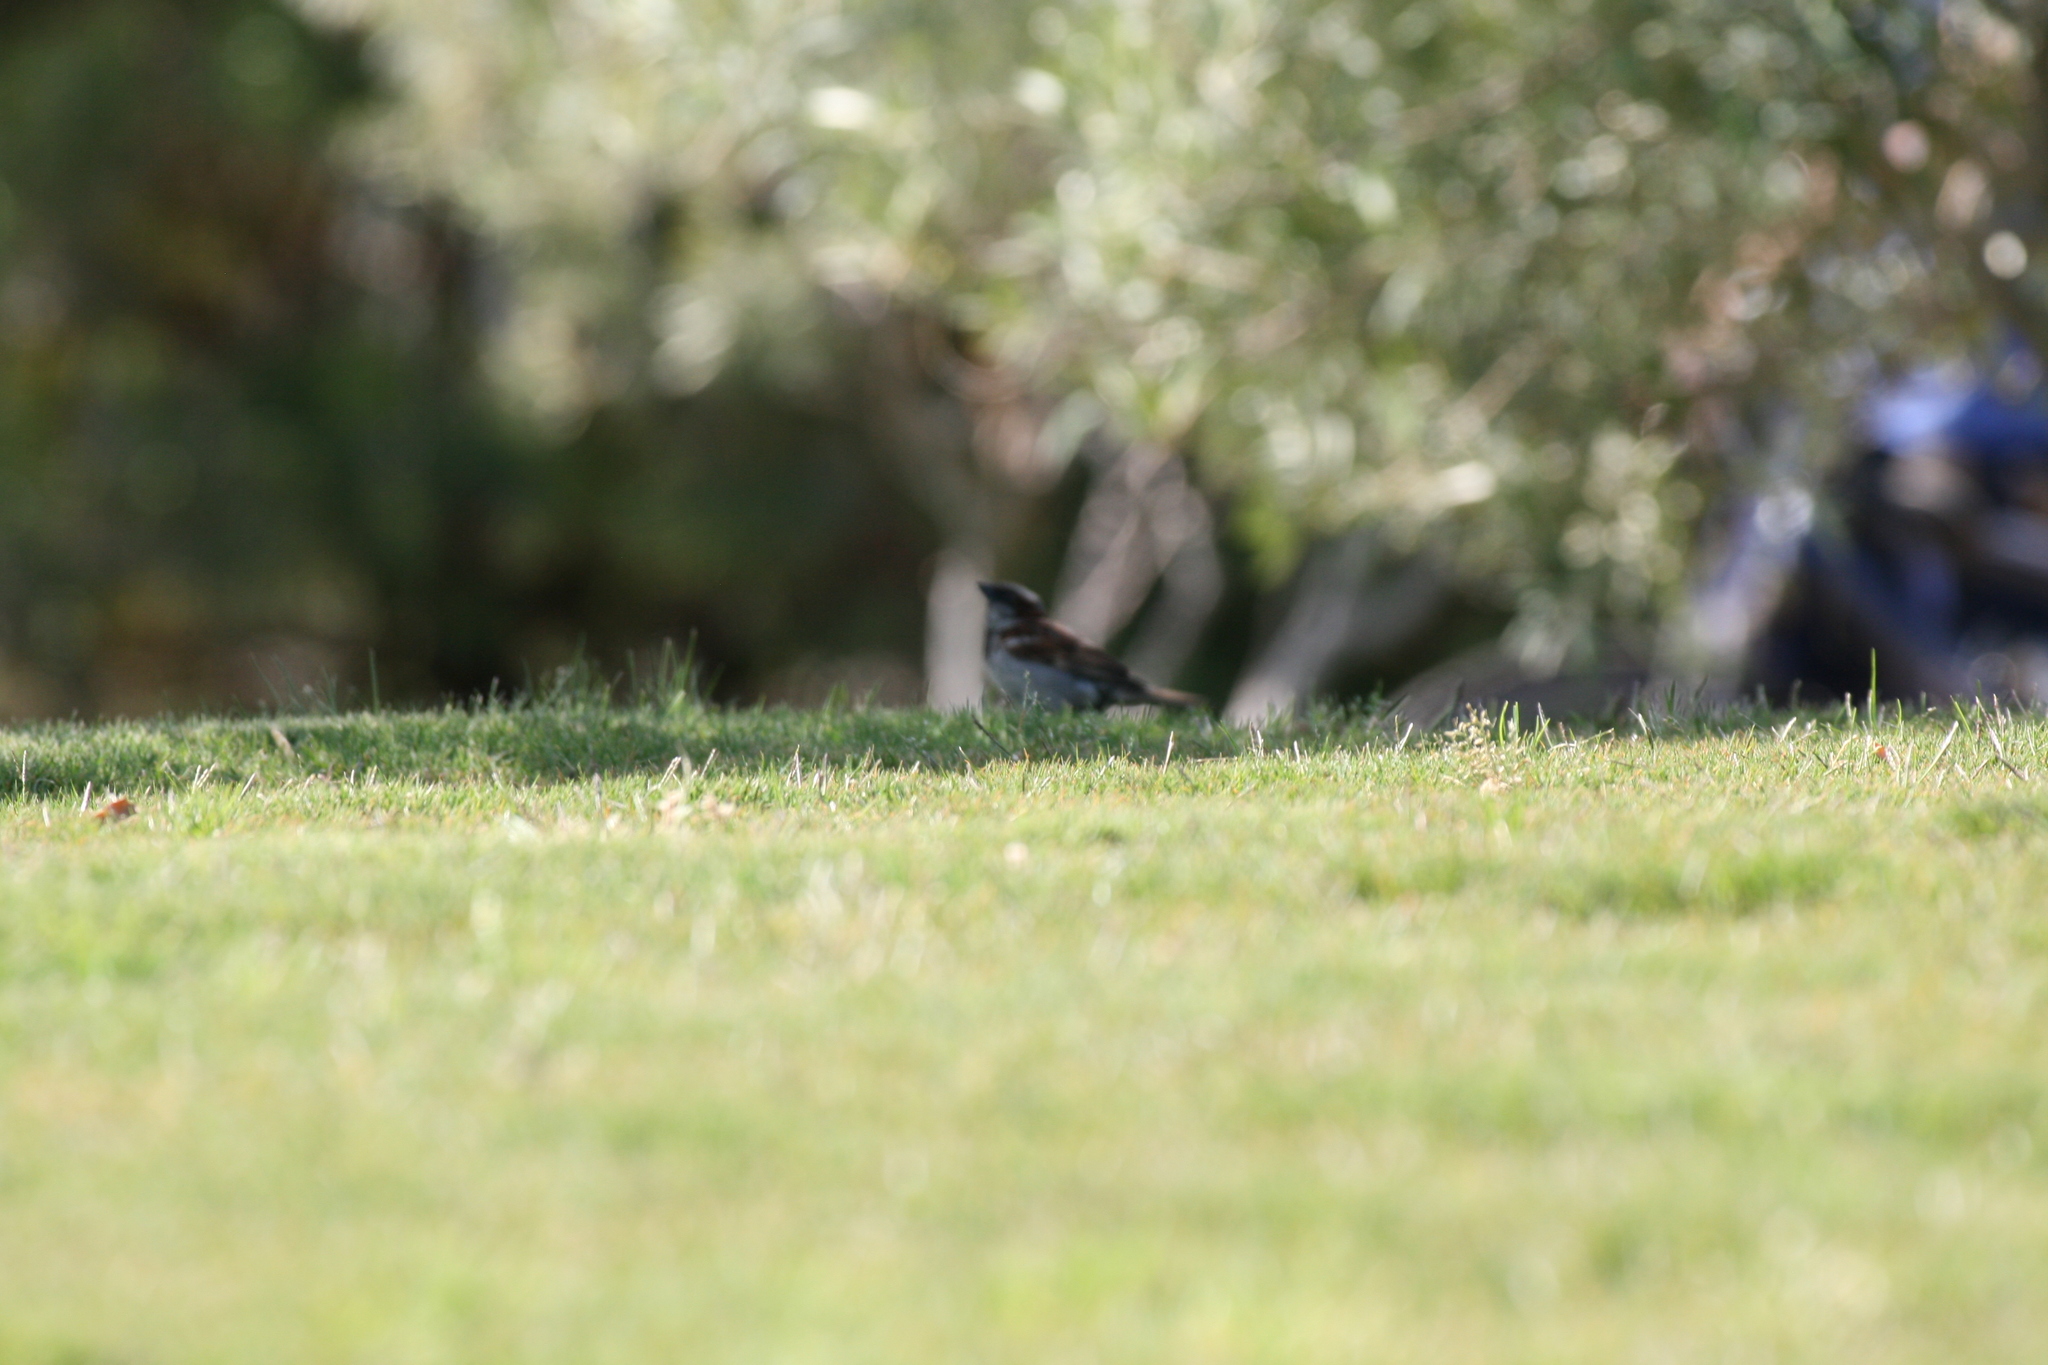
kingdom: Animalia
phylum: Chordata
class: Aves
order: Passeriformes
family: Passeridae
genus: Passer
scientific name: Passer domesticus
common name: House sparrow
